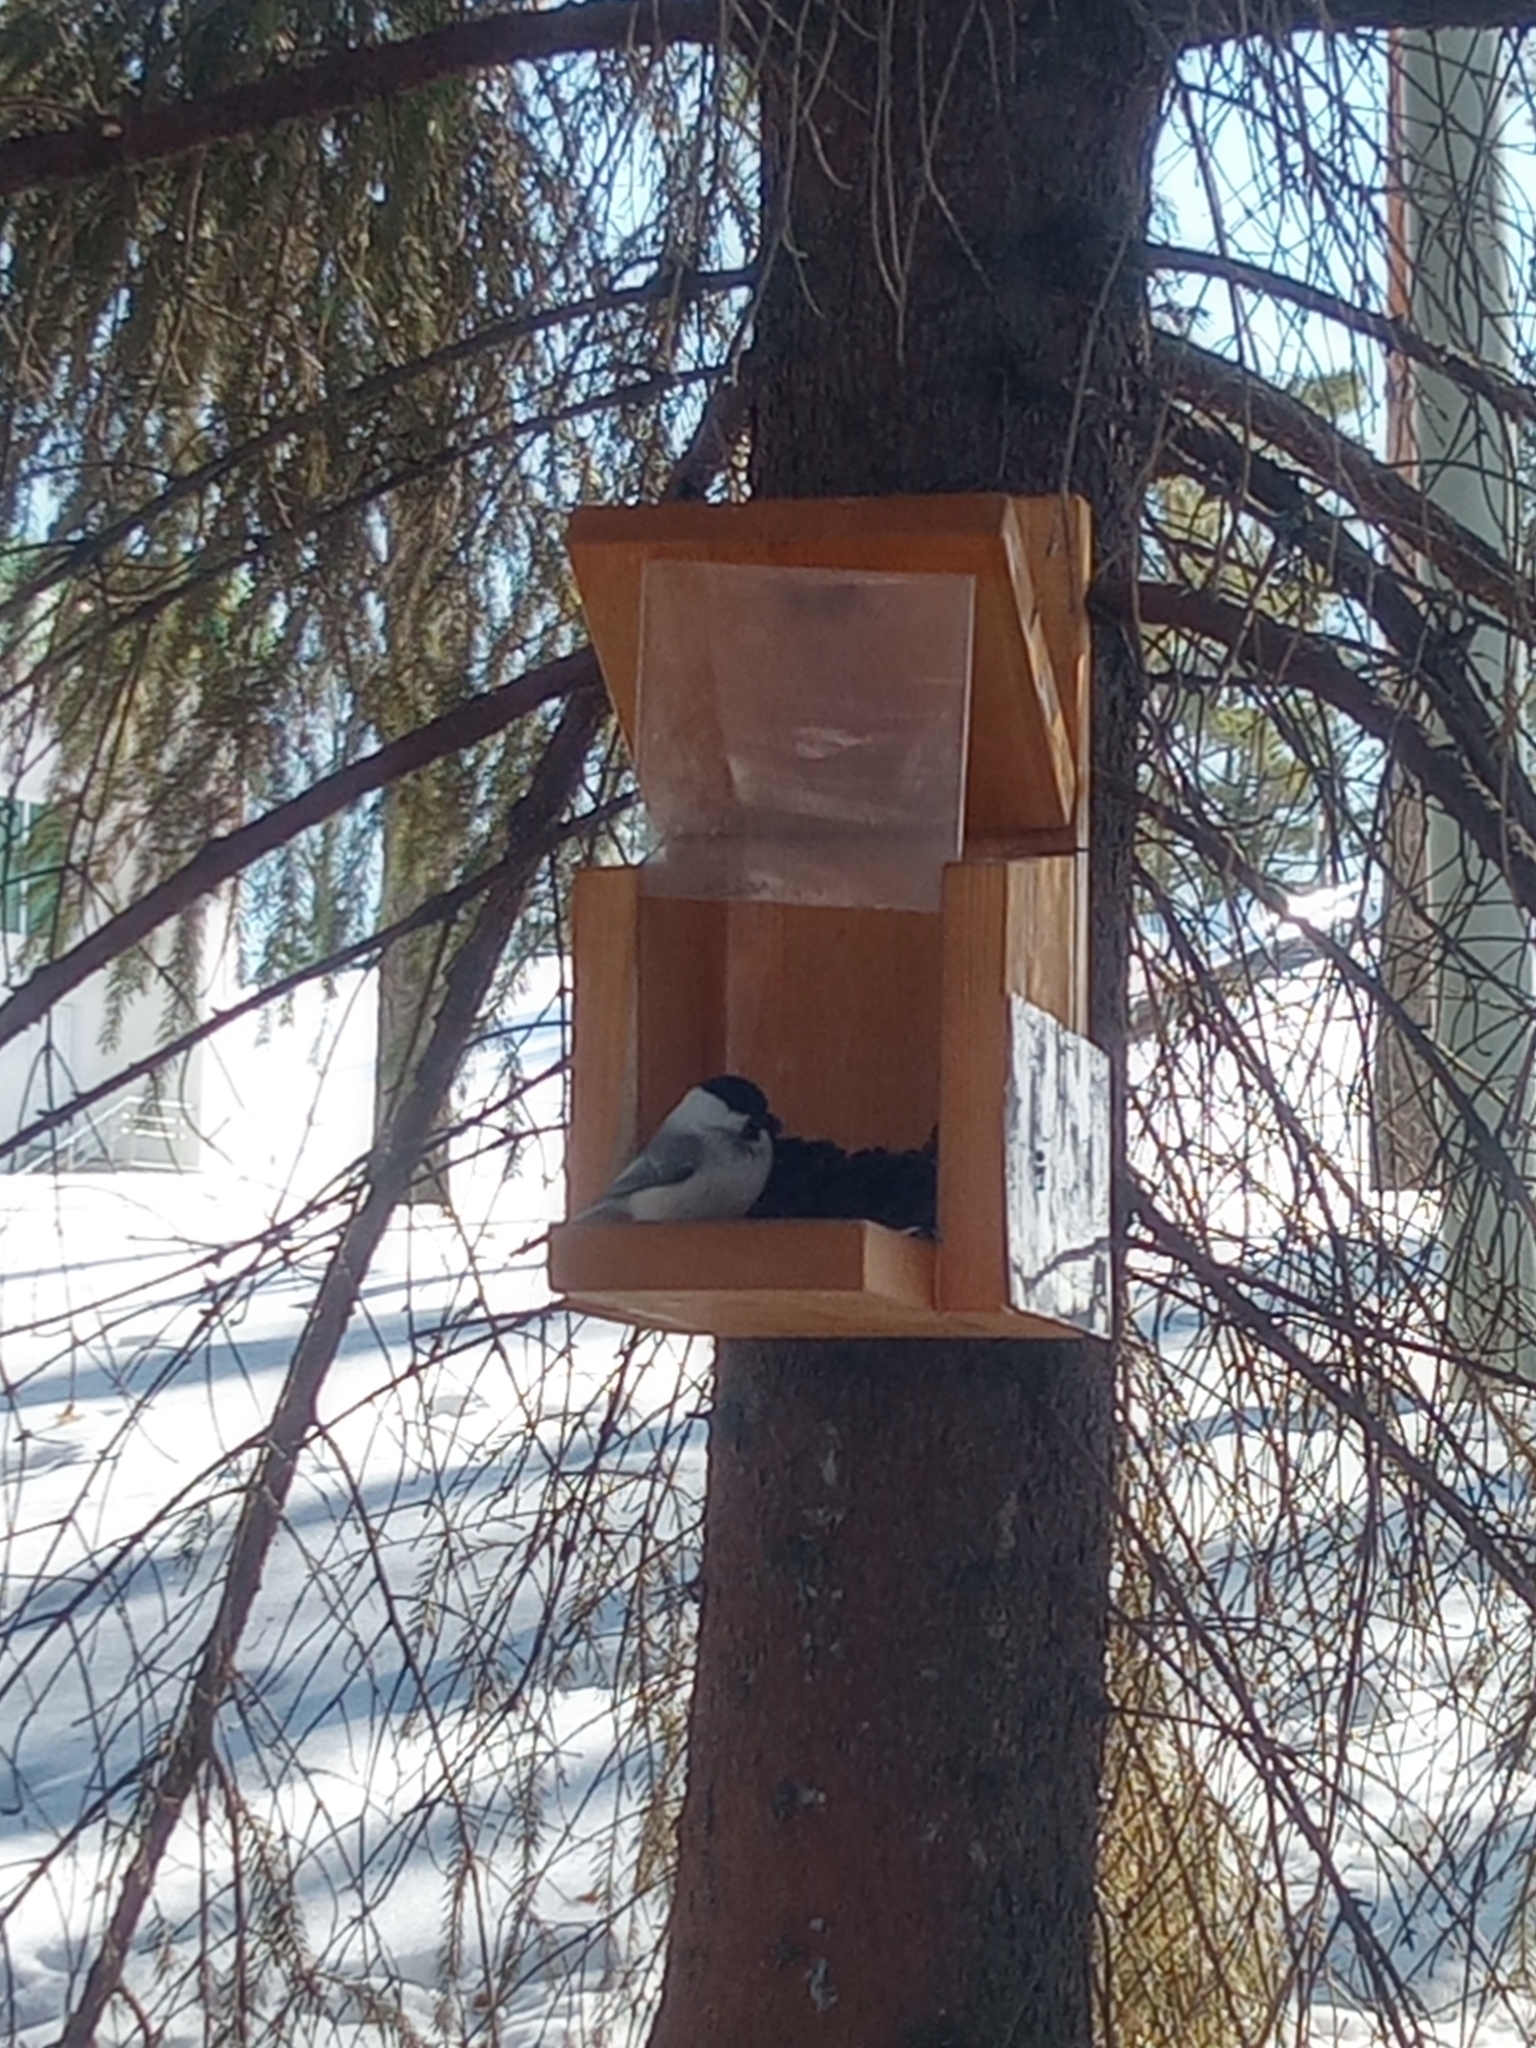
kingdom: Animalia
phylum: Chordata
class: Aves
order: Passeriformes
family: Paridae
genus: Poecile
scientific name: Poecile montanus
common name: Willow tit
